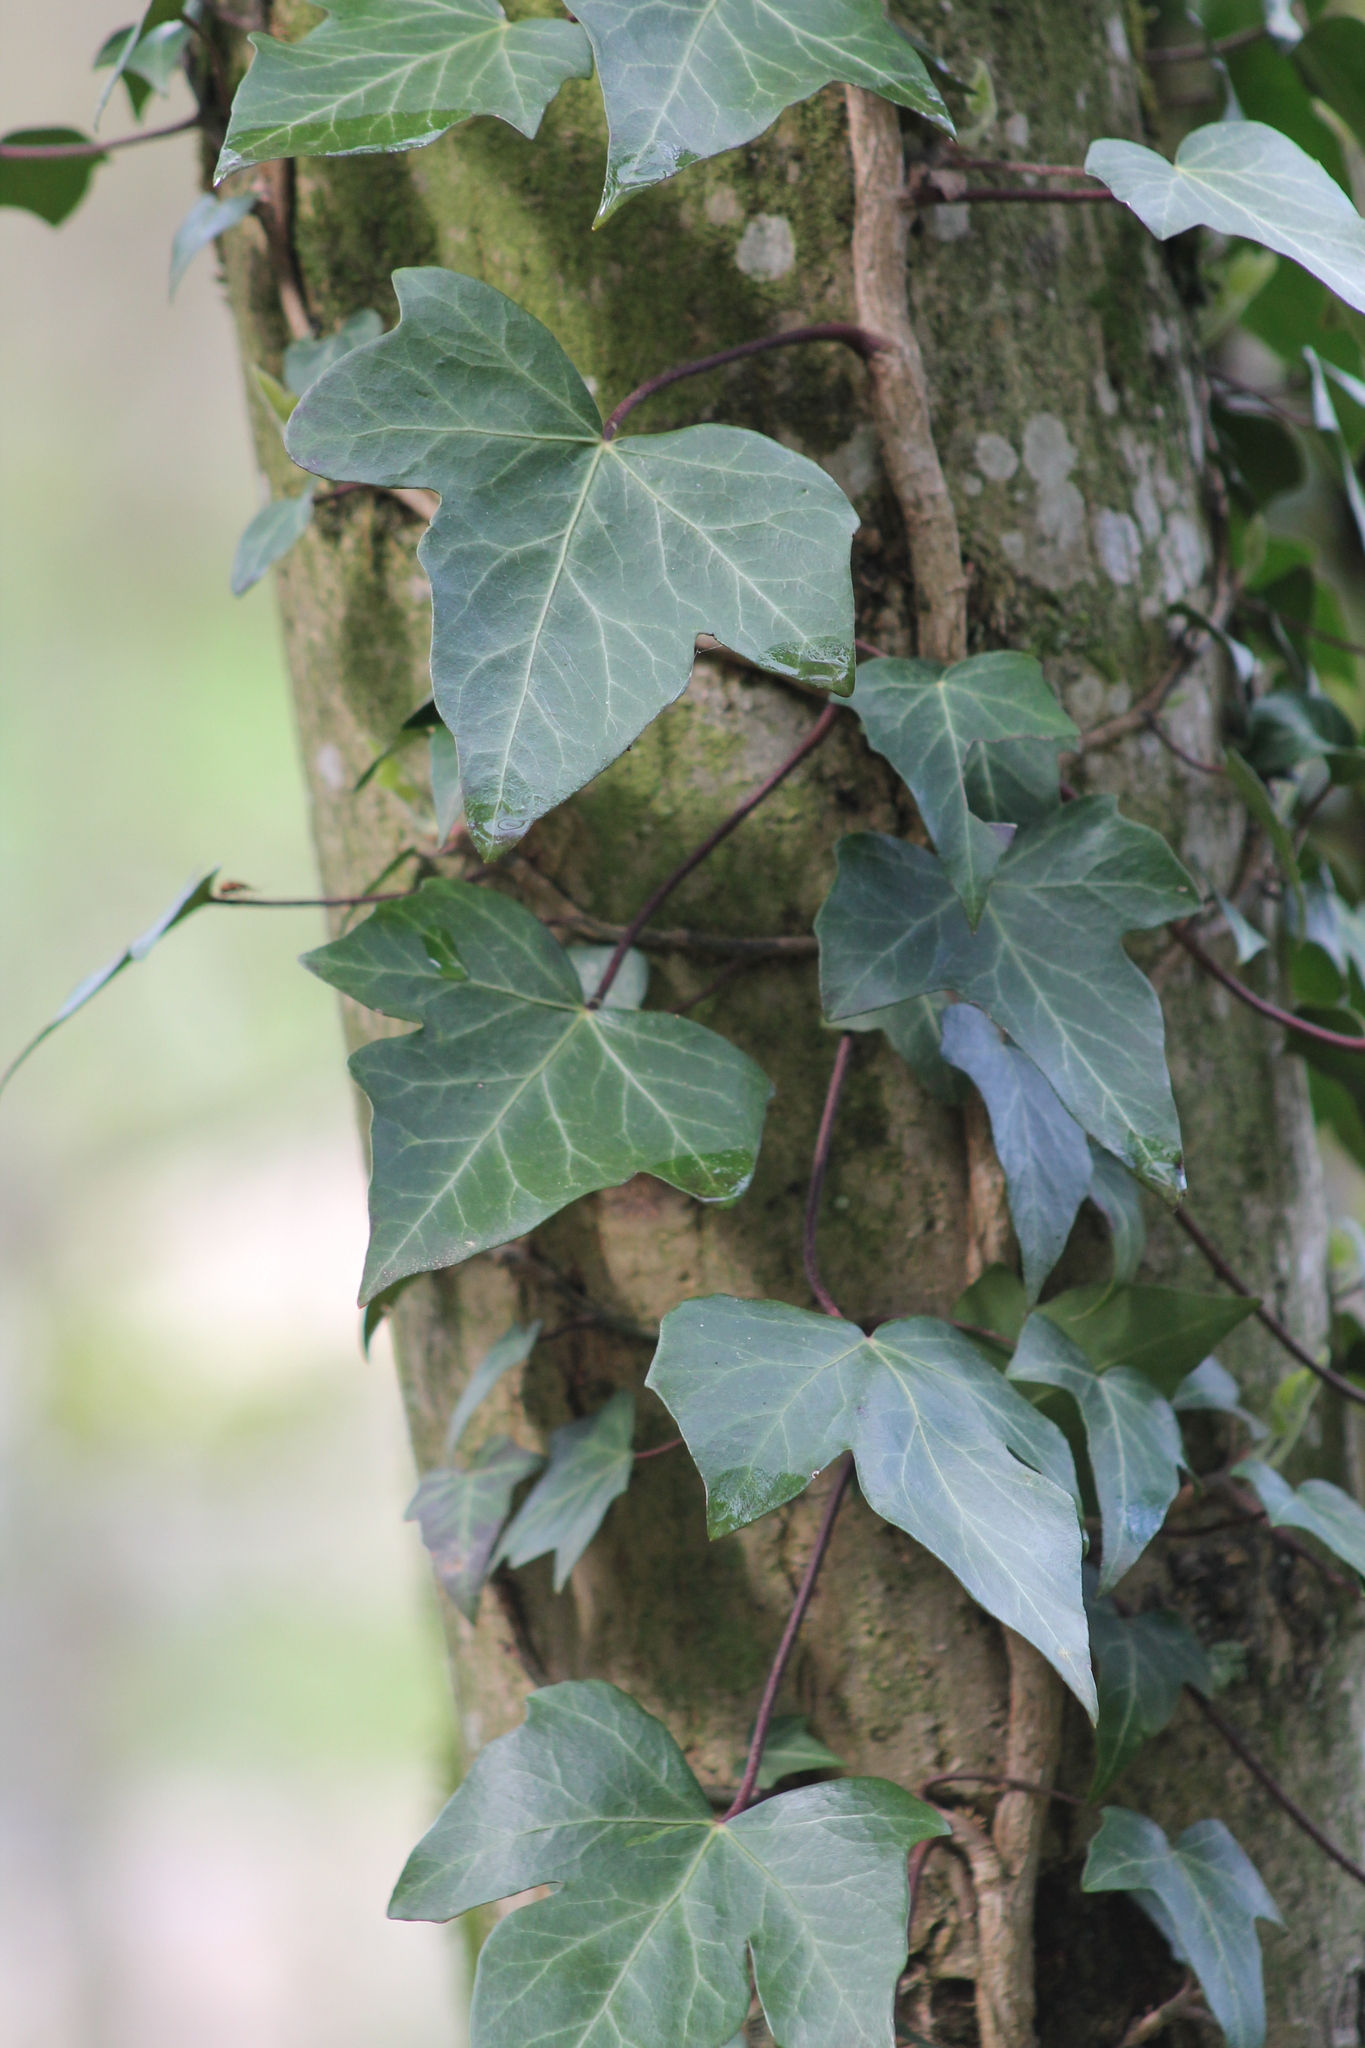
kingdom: Plantae
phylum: Tracheophyta
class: Magnoliopsida
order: Apiales
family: Araliaceae
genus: Hedera
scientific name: Hedera helix
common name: Ivy
